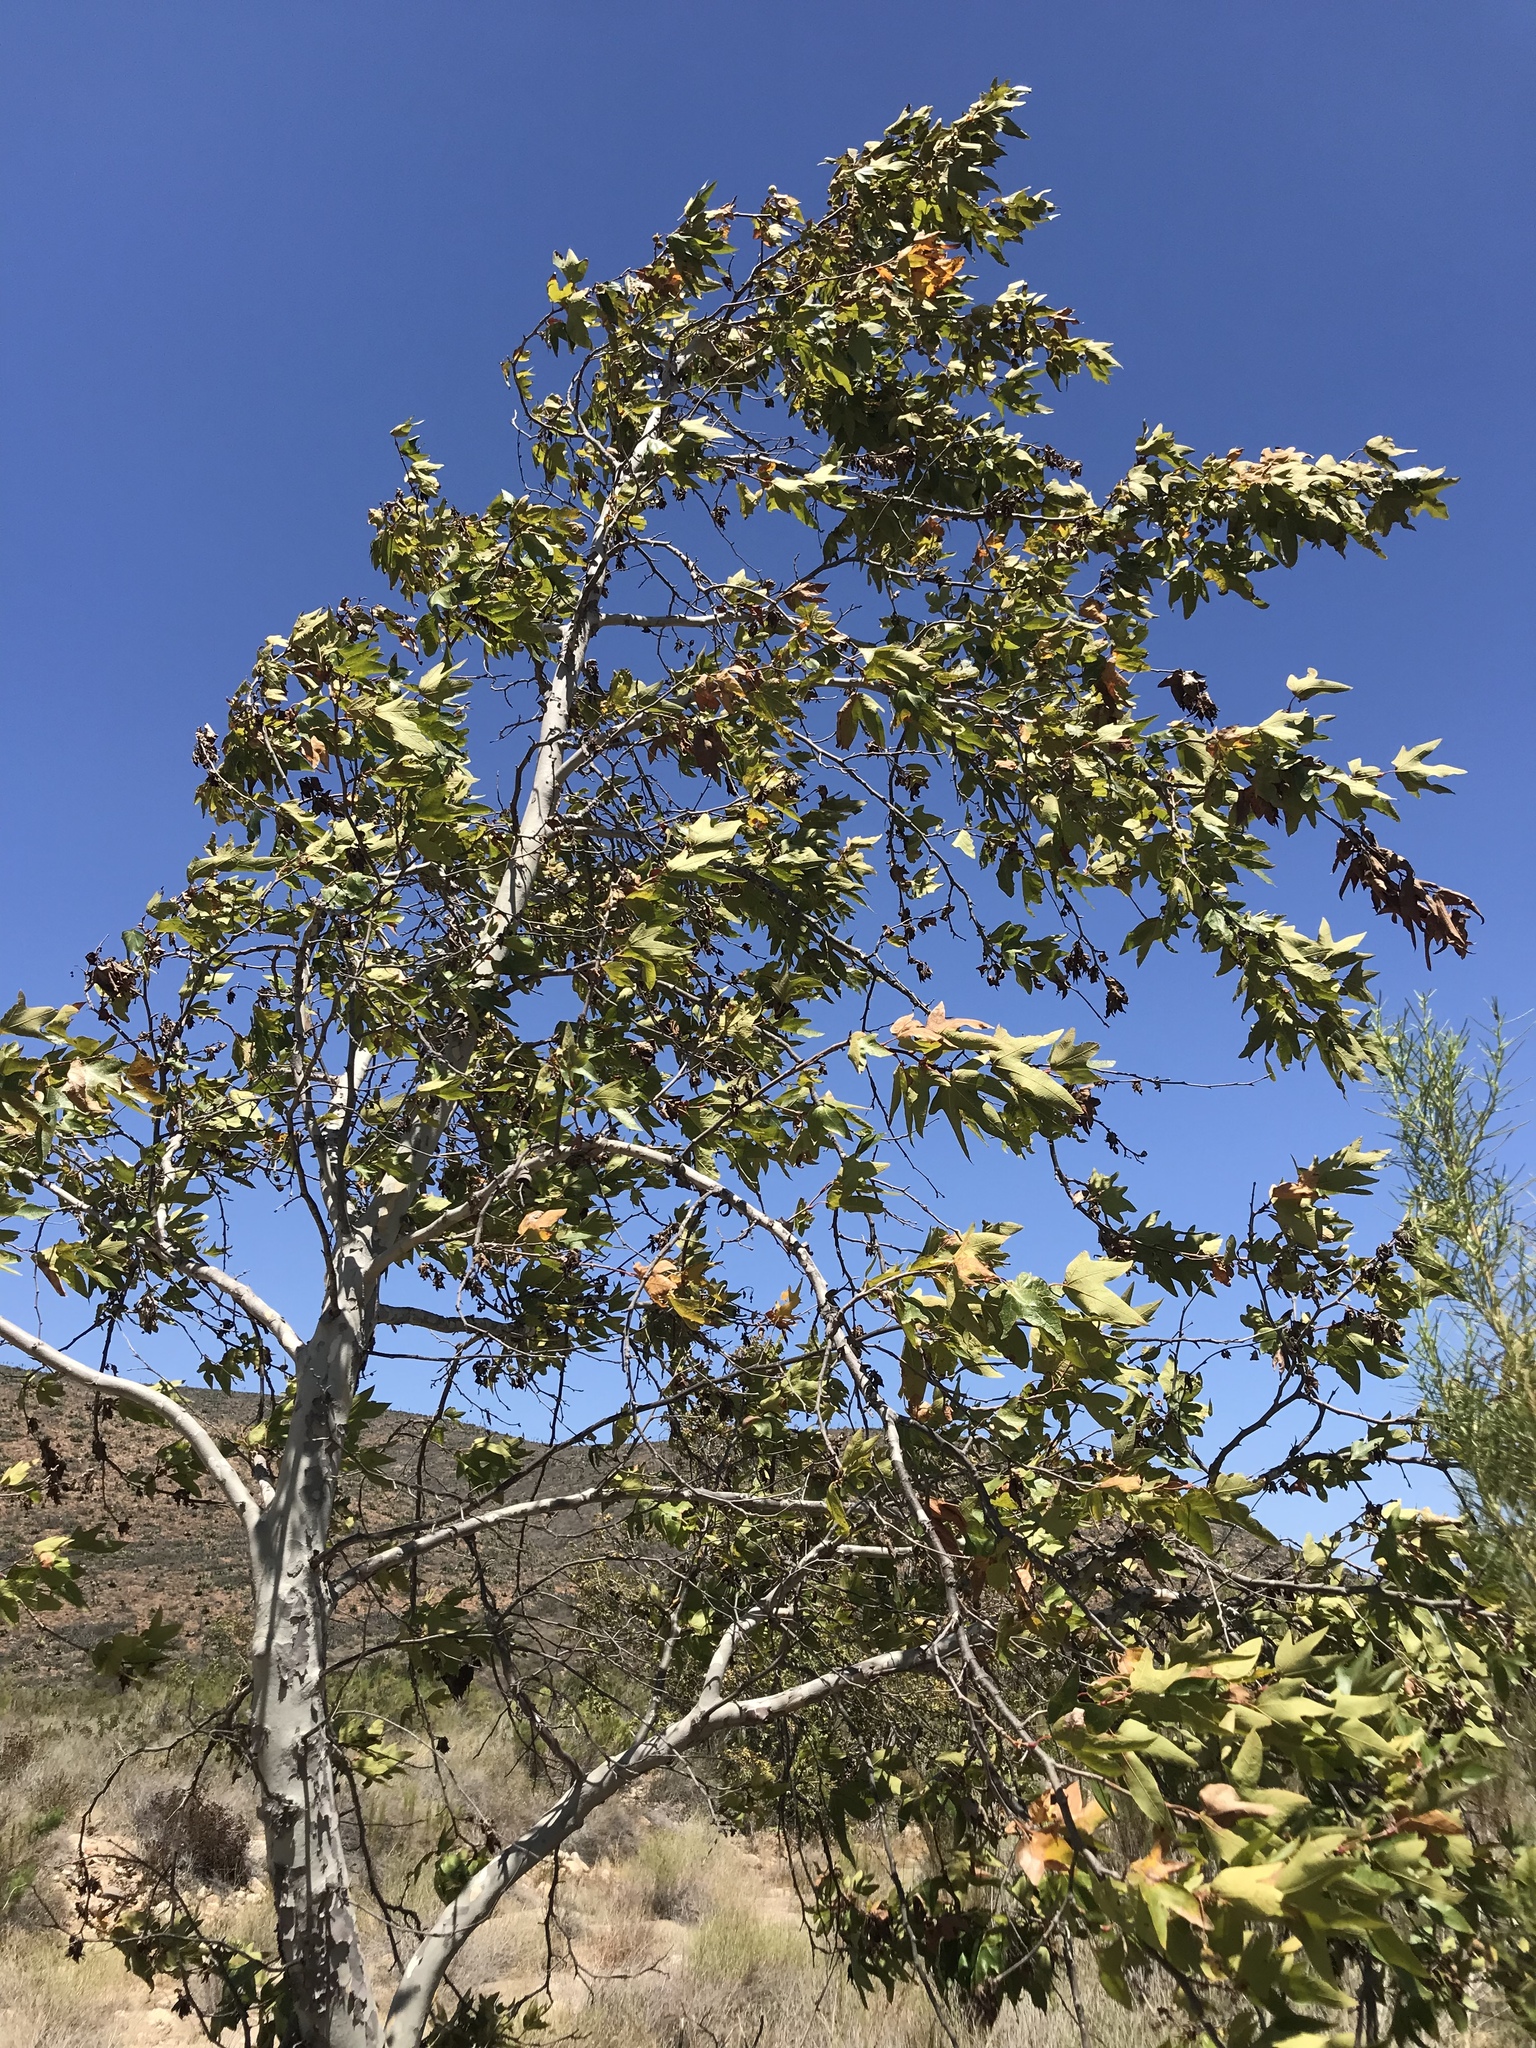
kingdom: Plantae
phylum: Tracheophyta
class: Magnoliopsida
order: Proteales
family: Platanaceae
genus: Platanus
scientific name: Platanus racemosa
